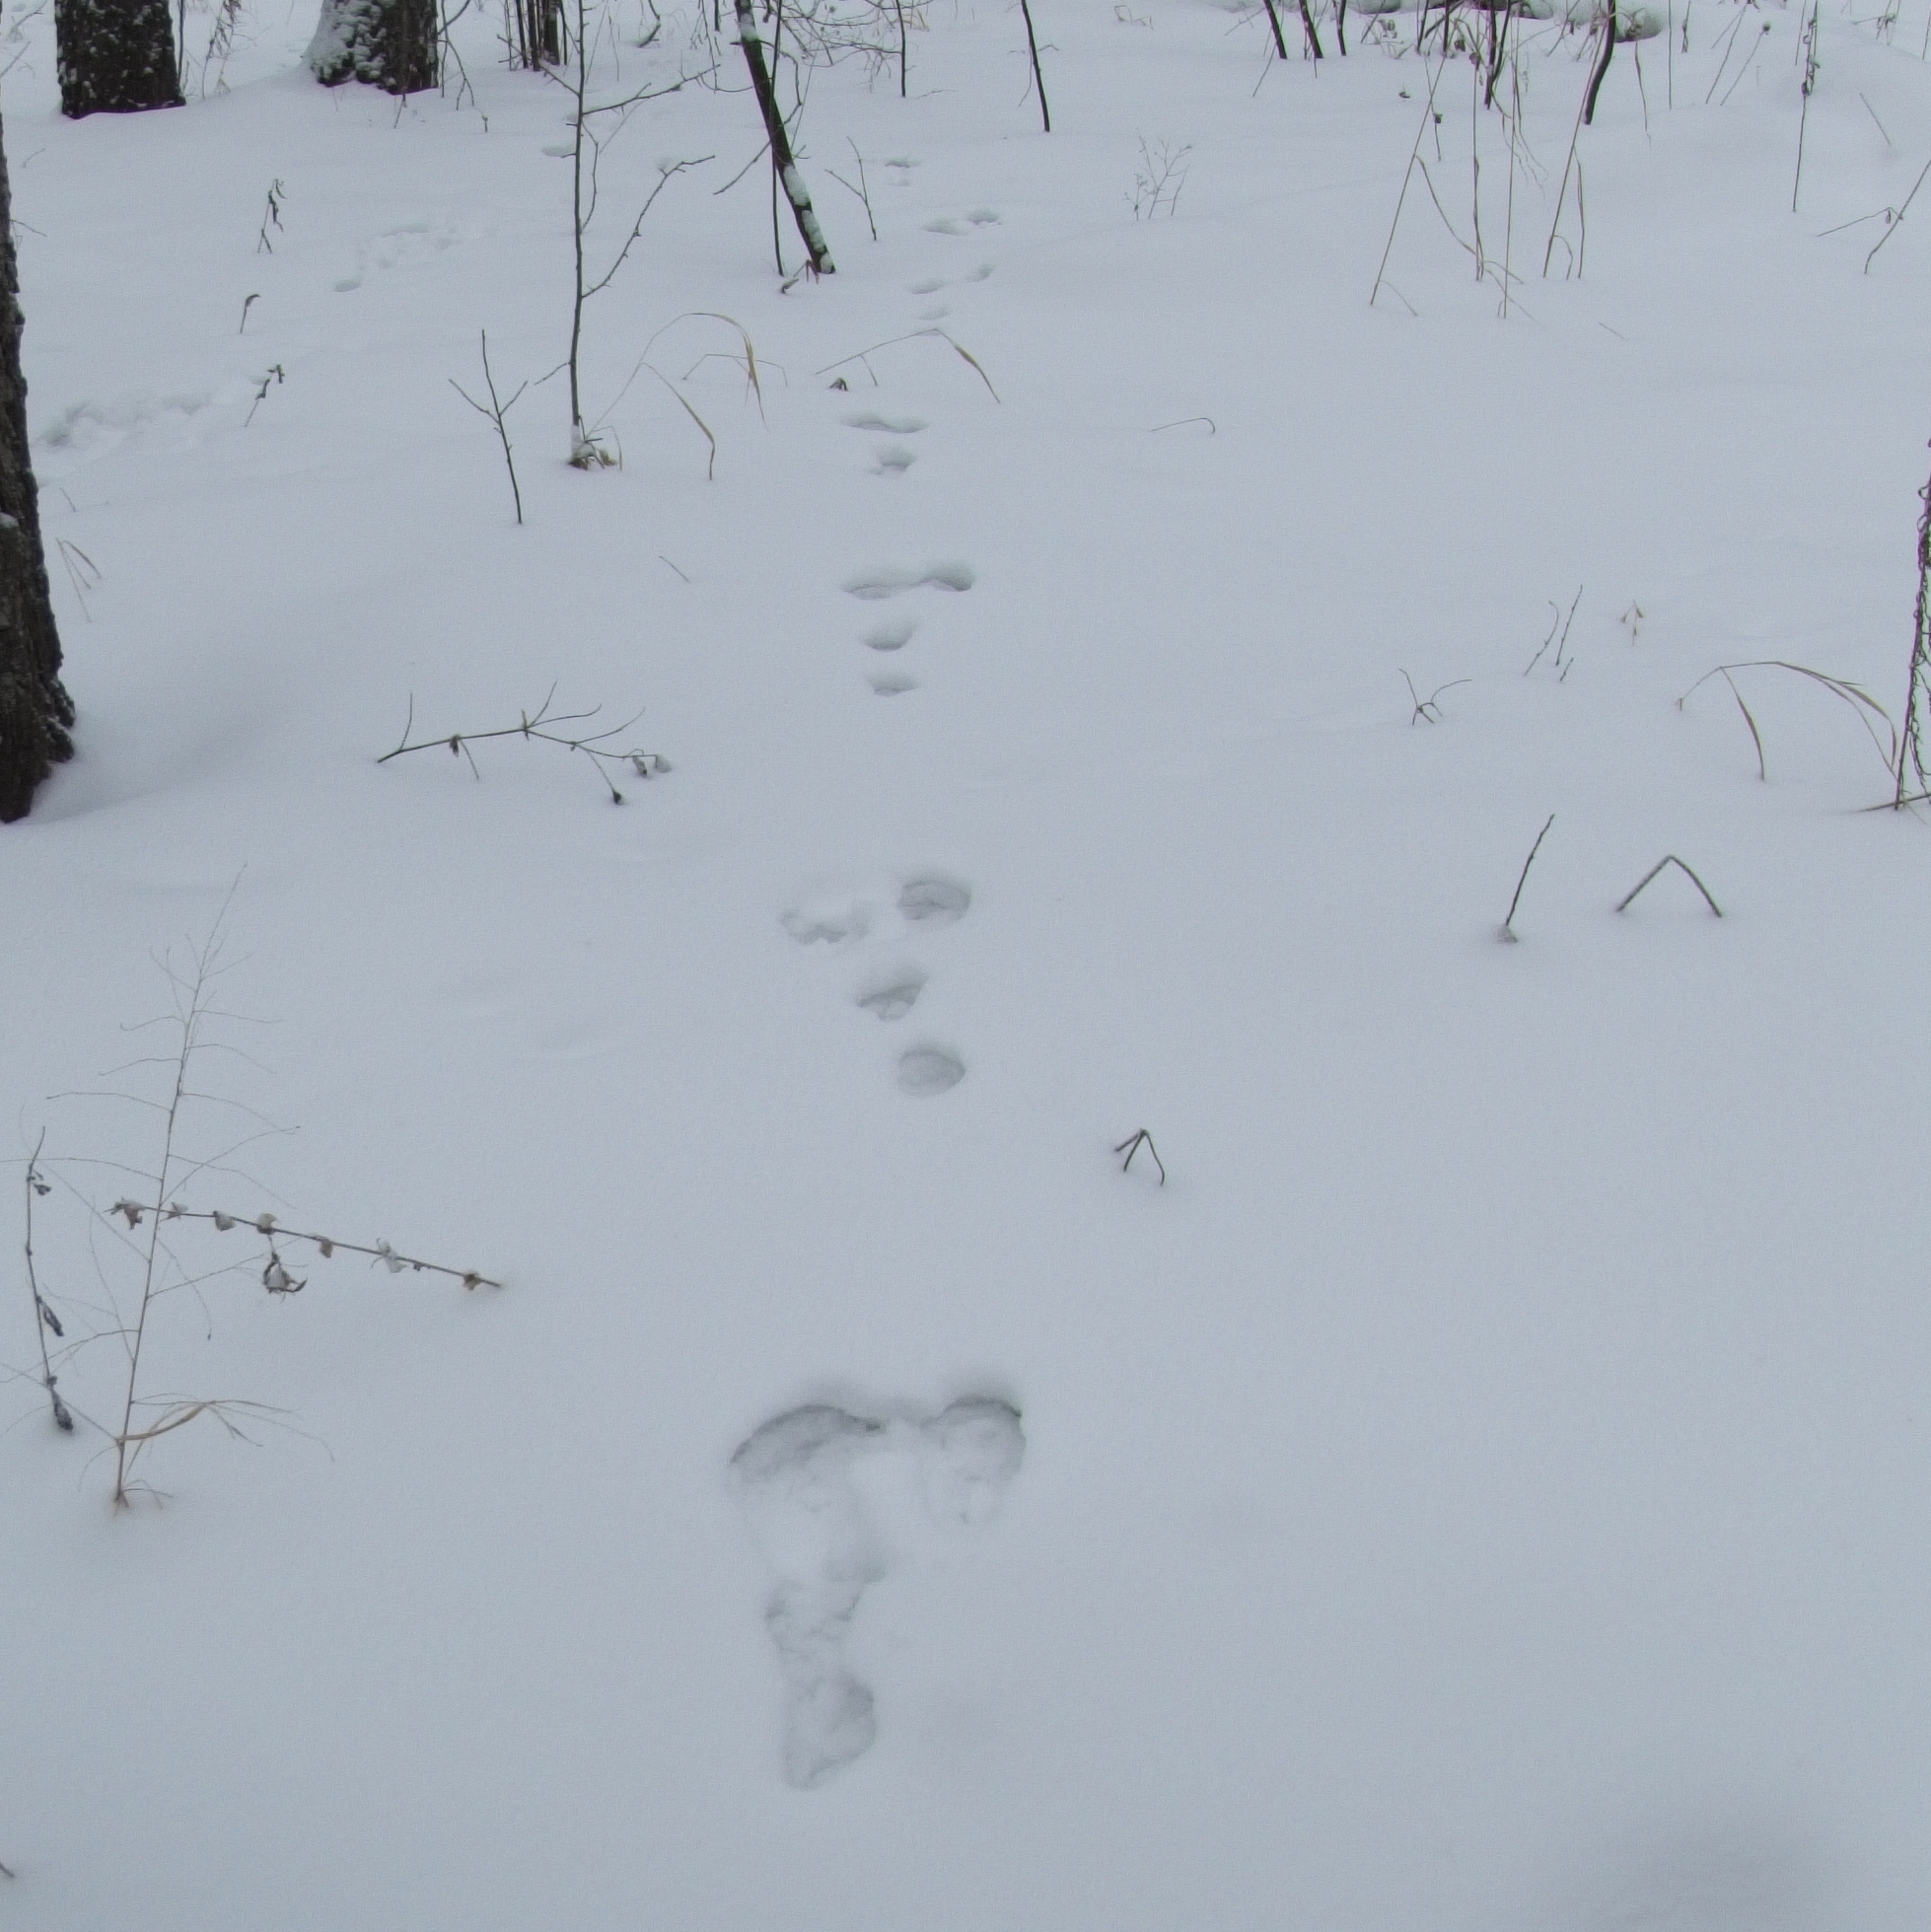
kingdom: Animalia
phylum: Chordata
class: Mammalia
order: Lagomorpha
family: Leporidae
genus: Lepus
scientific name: Lepus timidus
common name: Mountain hare
